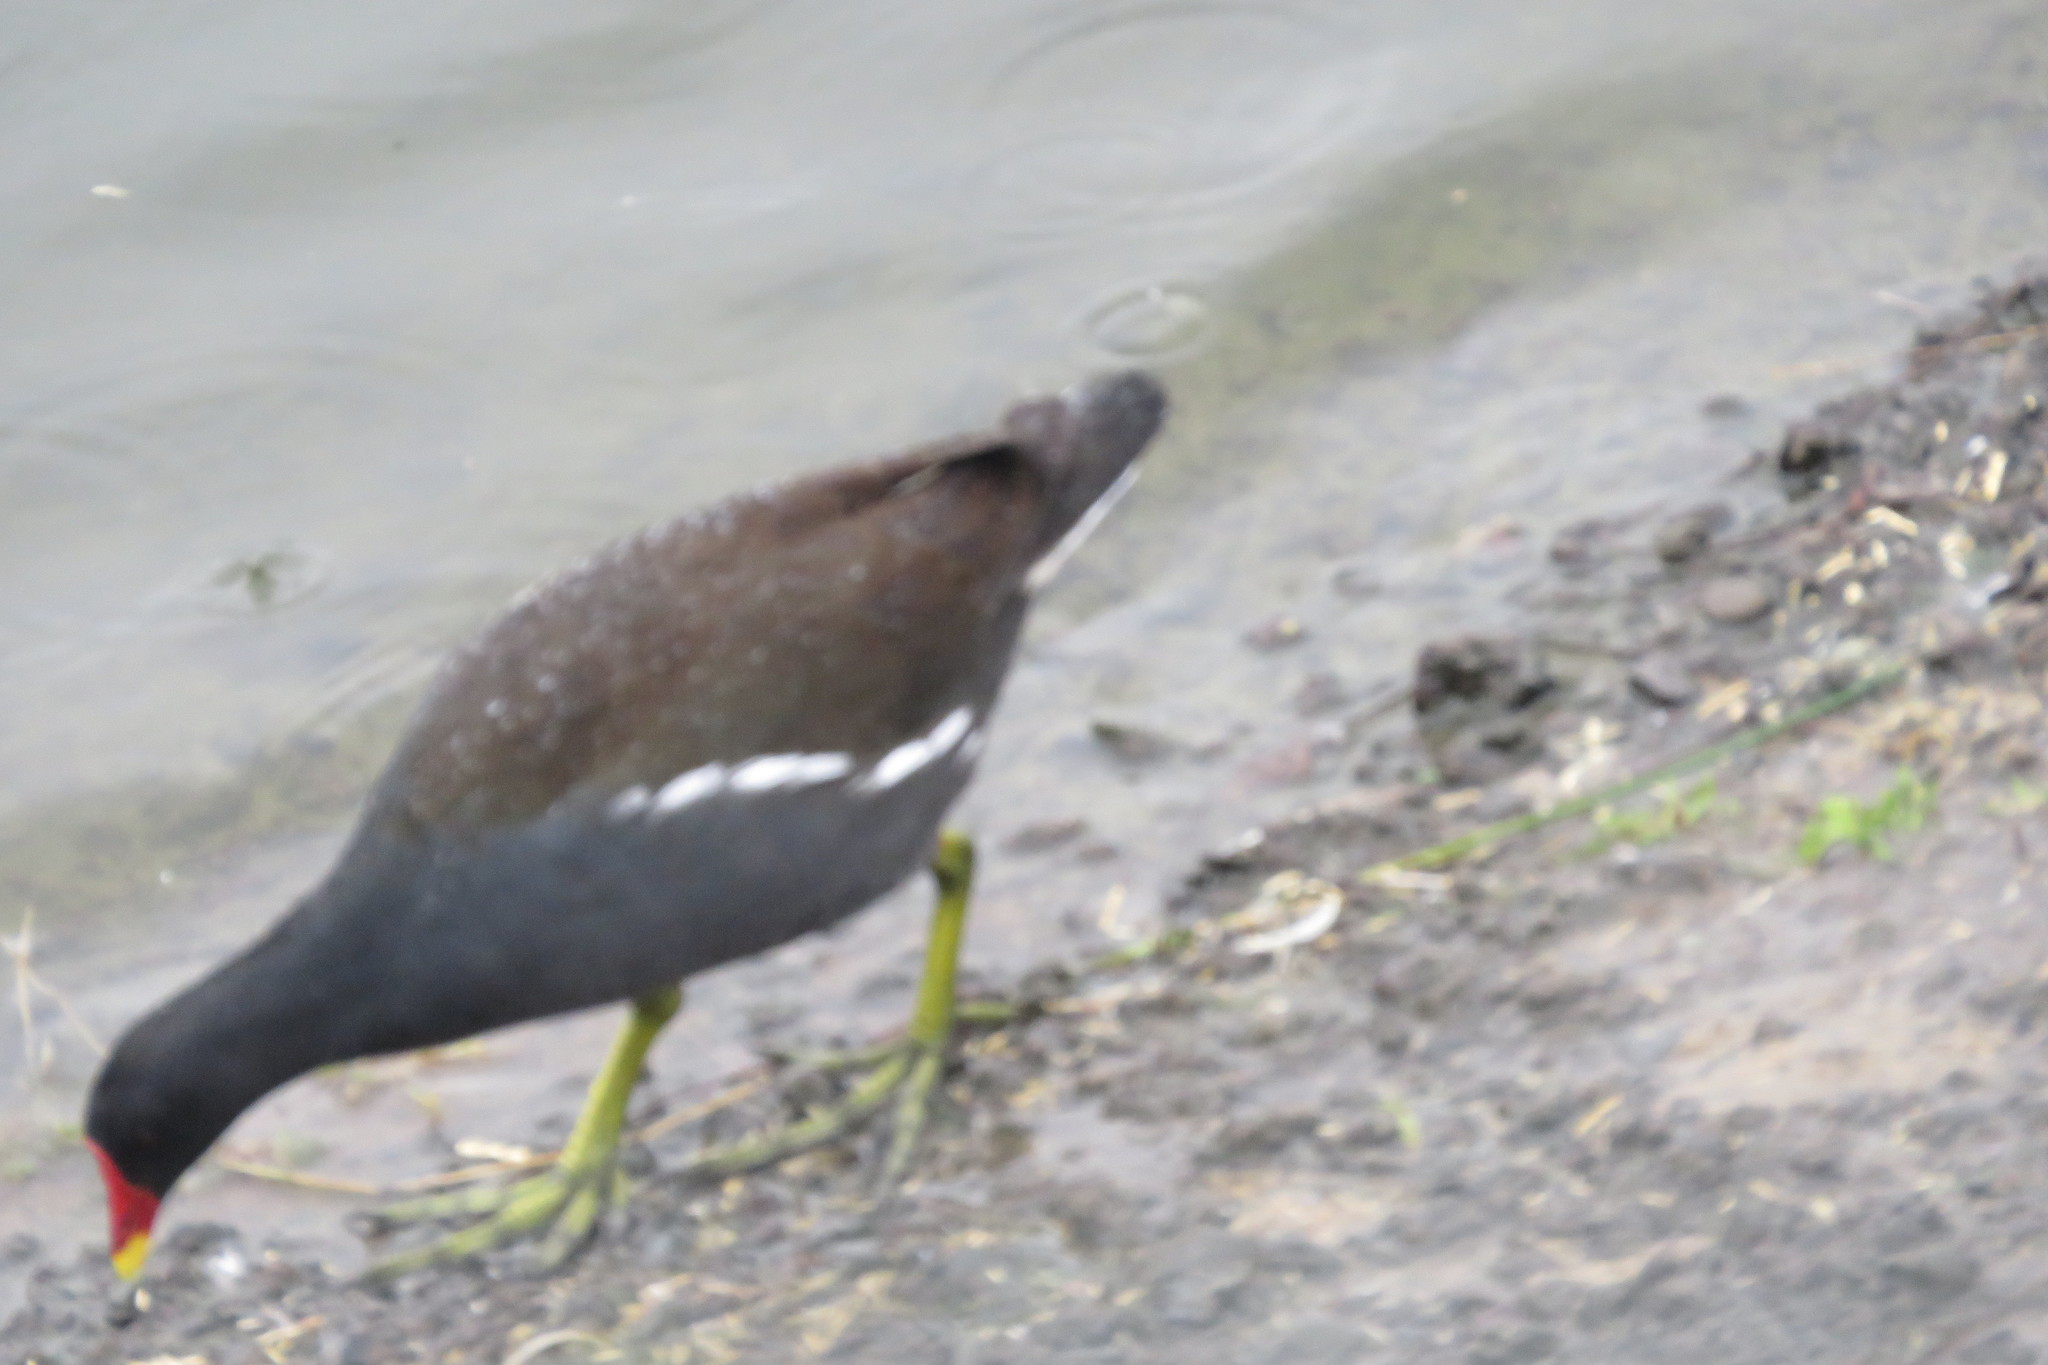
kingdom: Animalia
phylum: Chordata
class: Aves
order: Gruiformes
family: Rallidae
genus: Gallinula
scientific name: Gallinula chloropus
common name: Common moorhen
